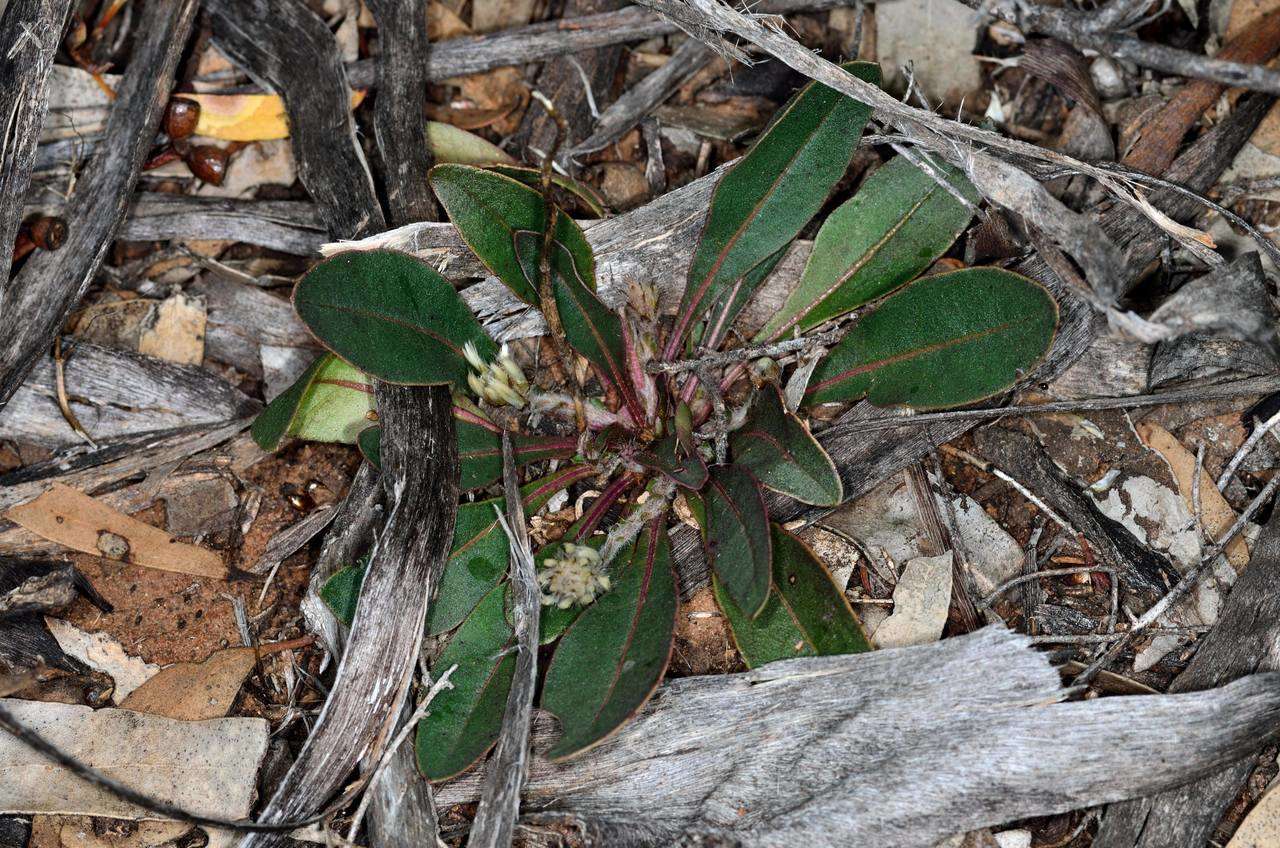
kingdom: Plantae
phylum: Tracheophyta
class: Magnoliopsida
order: Caryophyllales
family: Amaranthaceae
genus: Ptilotus
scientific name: Ptilotus seminudus
